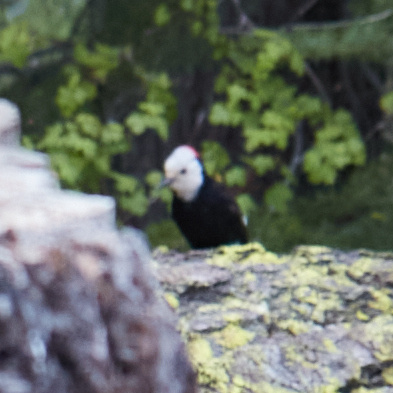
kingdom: Animalia
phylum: Chordata
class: Aves
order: Piciformes
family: Picidae
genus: Leuconotopicus
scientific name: Leuconotopicus albolarvatus
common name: White-headed woodpecker
